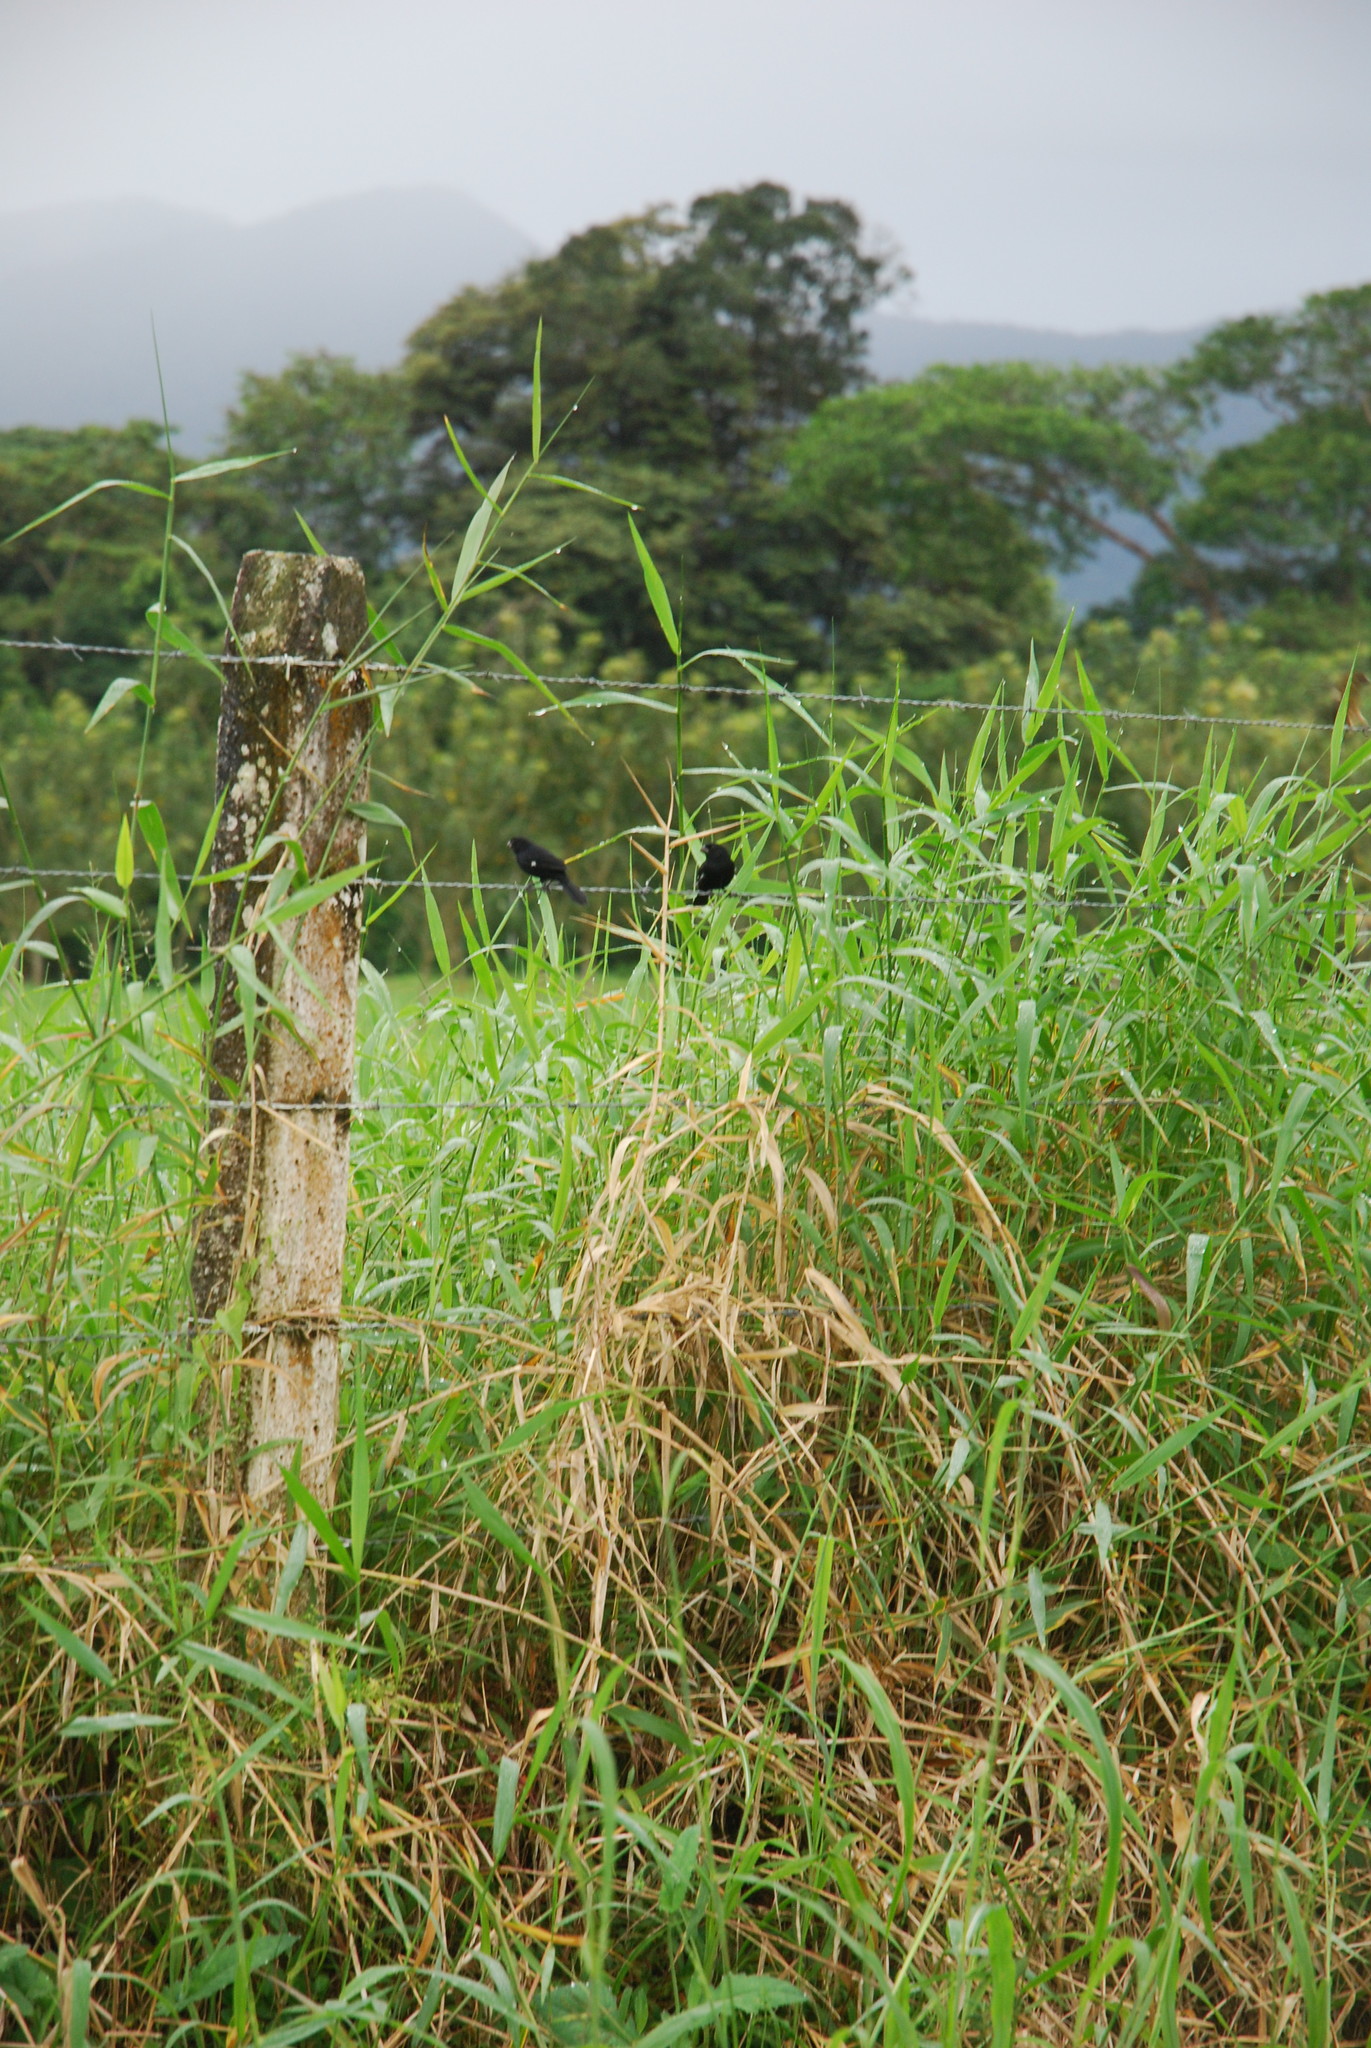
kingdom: Animalia
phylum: Chordata
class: Aves
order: Passeriformes
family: Thraupidae
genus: Sporophila
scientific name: Sporophila corvina
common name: Variable seedeater
